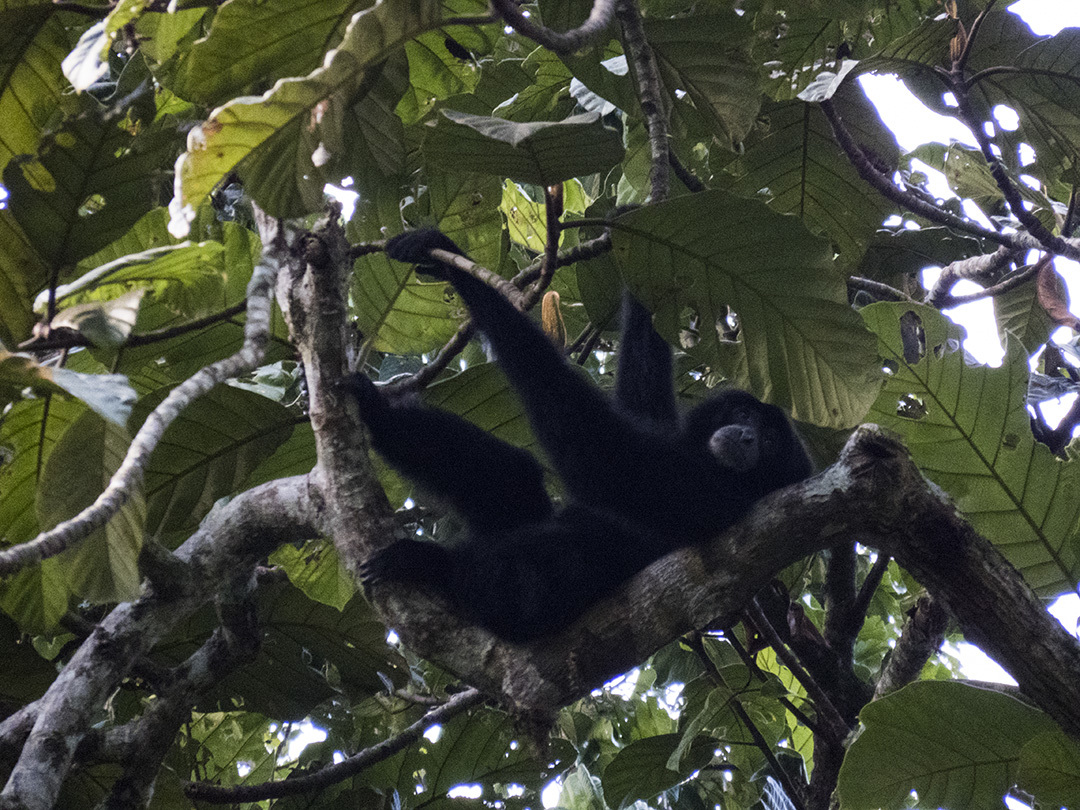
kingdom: Animalia
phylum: Chordata
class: Mammalia
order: Primates
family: Hylobatidae
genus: Symphalangus
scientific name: Symphalangus syndactylus
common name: Siamang
